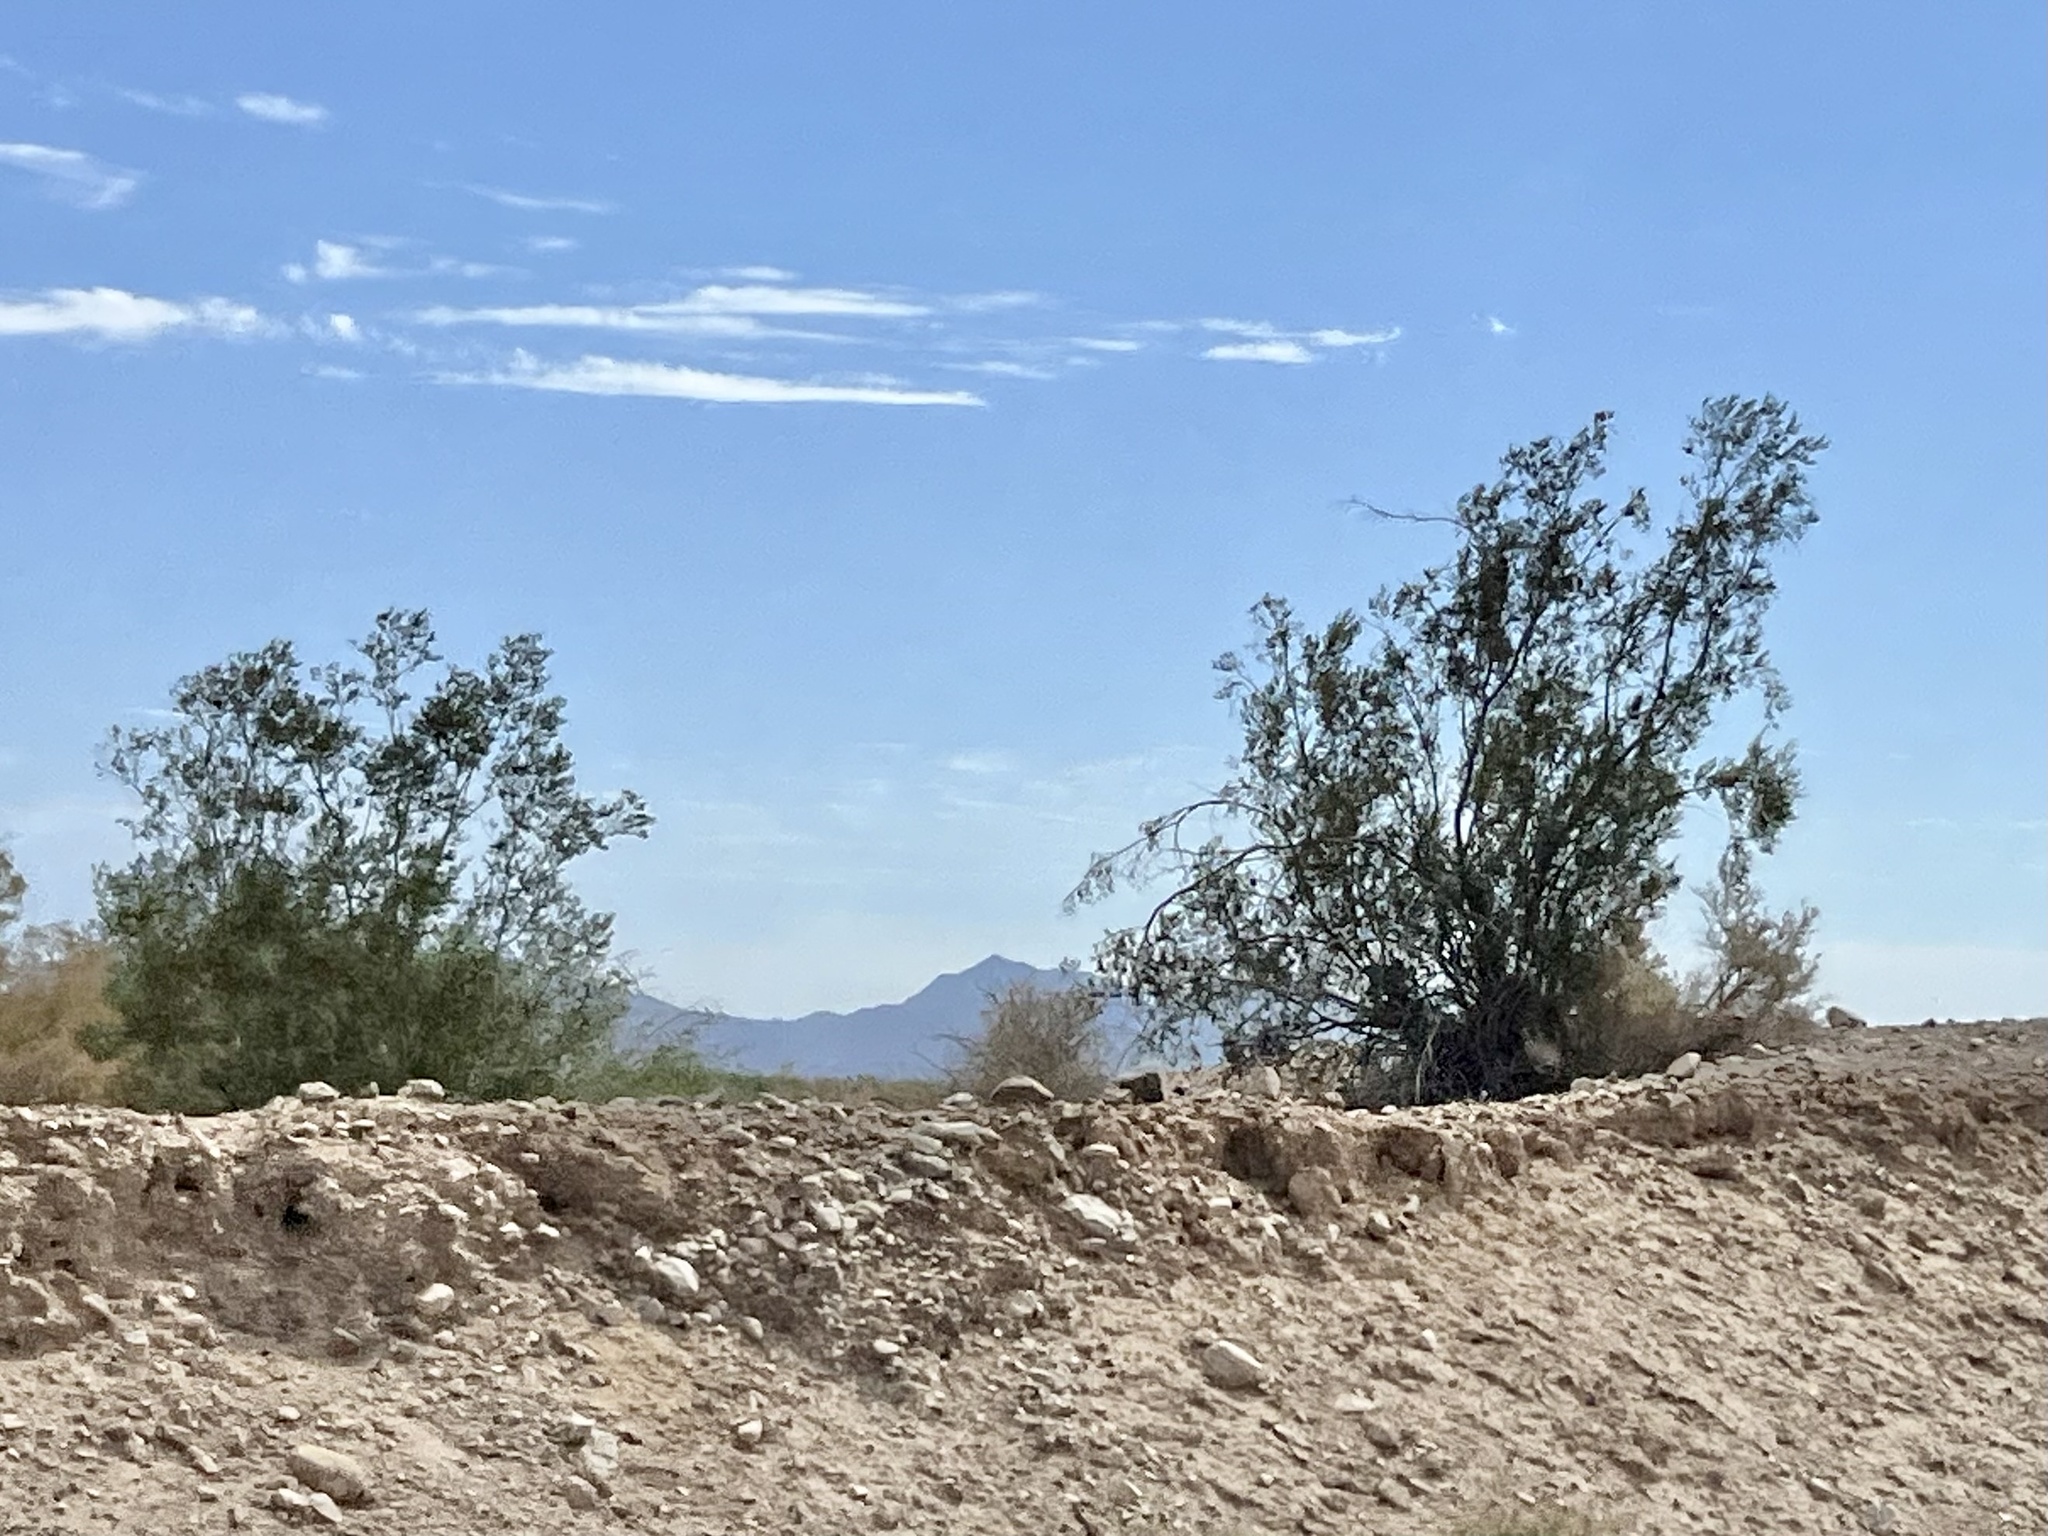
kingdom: Plantae
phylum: Tracheophyta
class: Magnoliopsida
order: Zygophyllales
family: Zygophyllaceae
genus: Larrea
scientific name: Larrea tridentata
